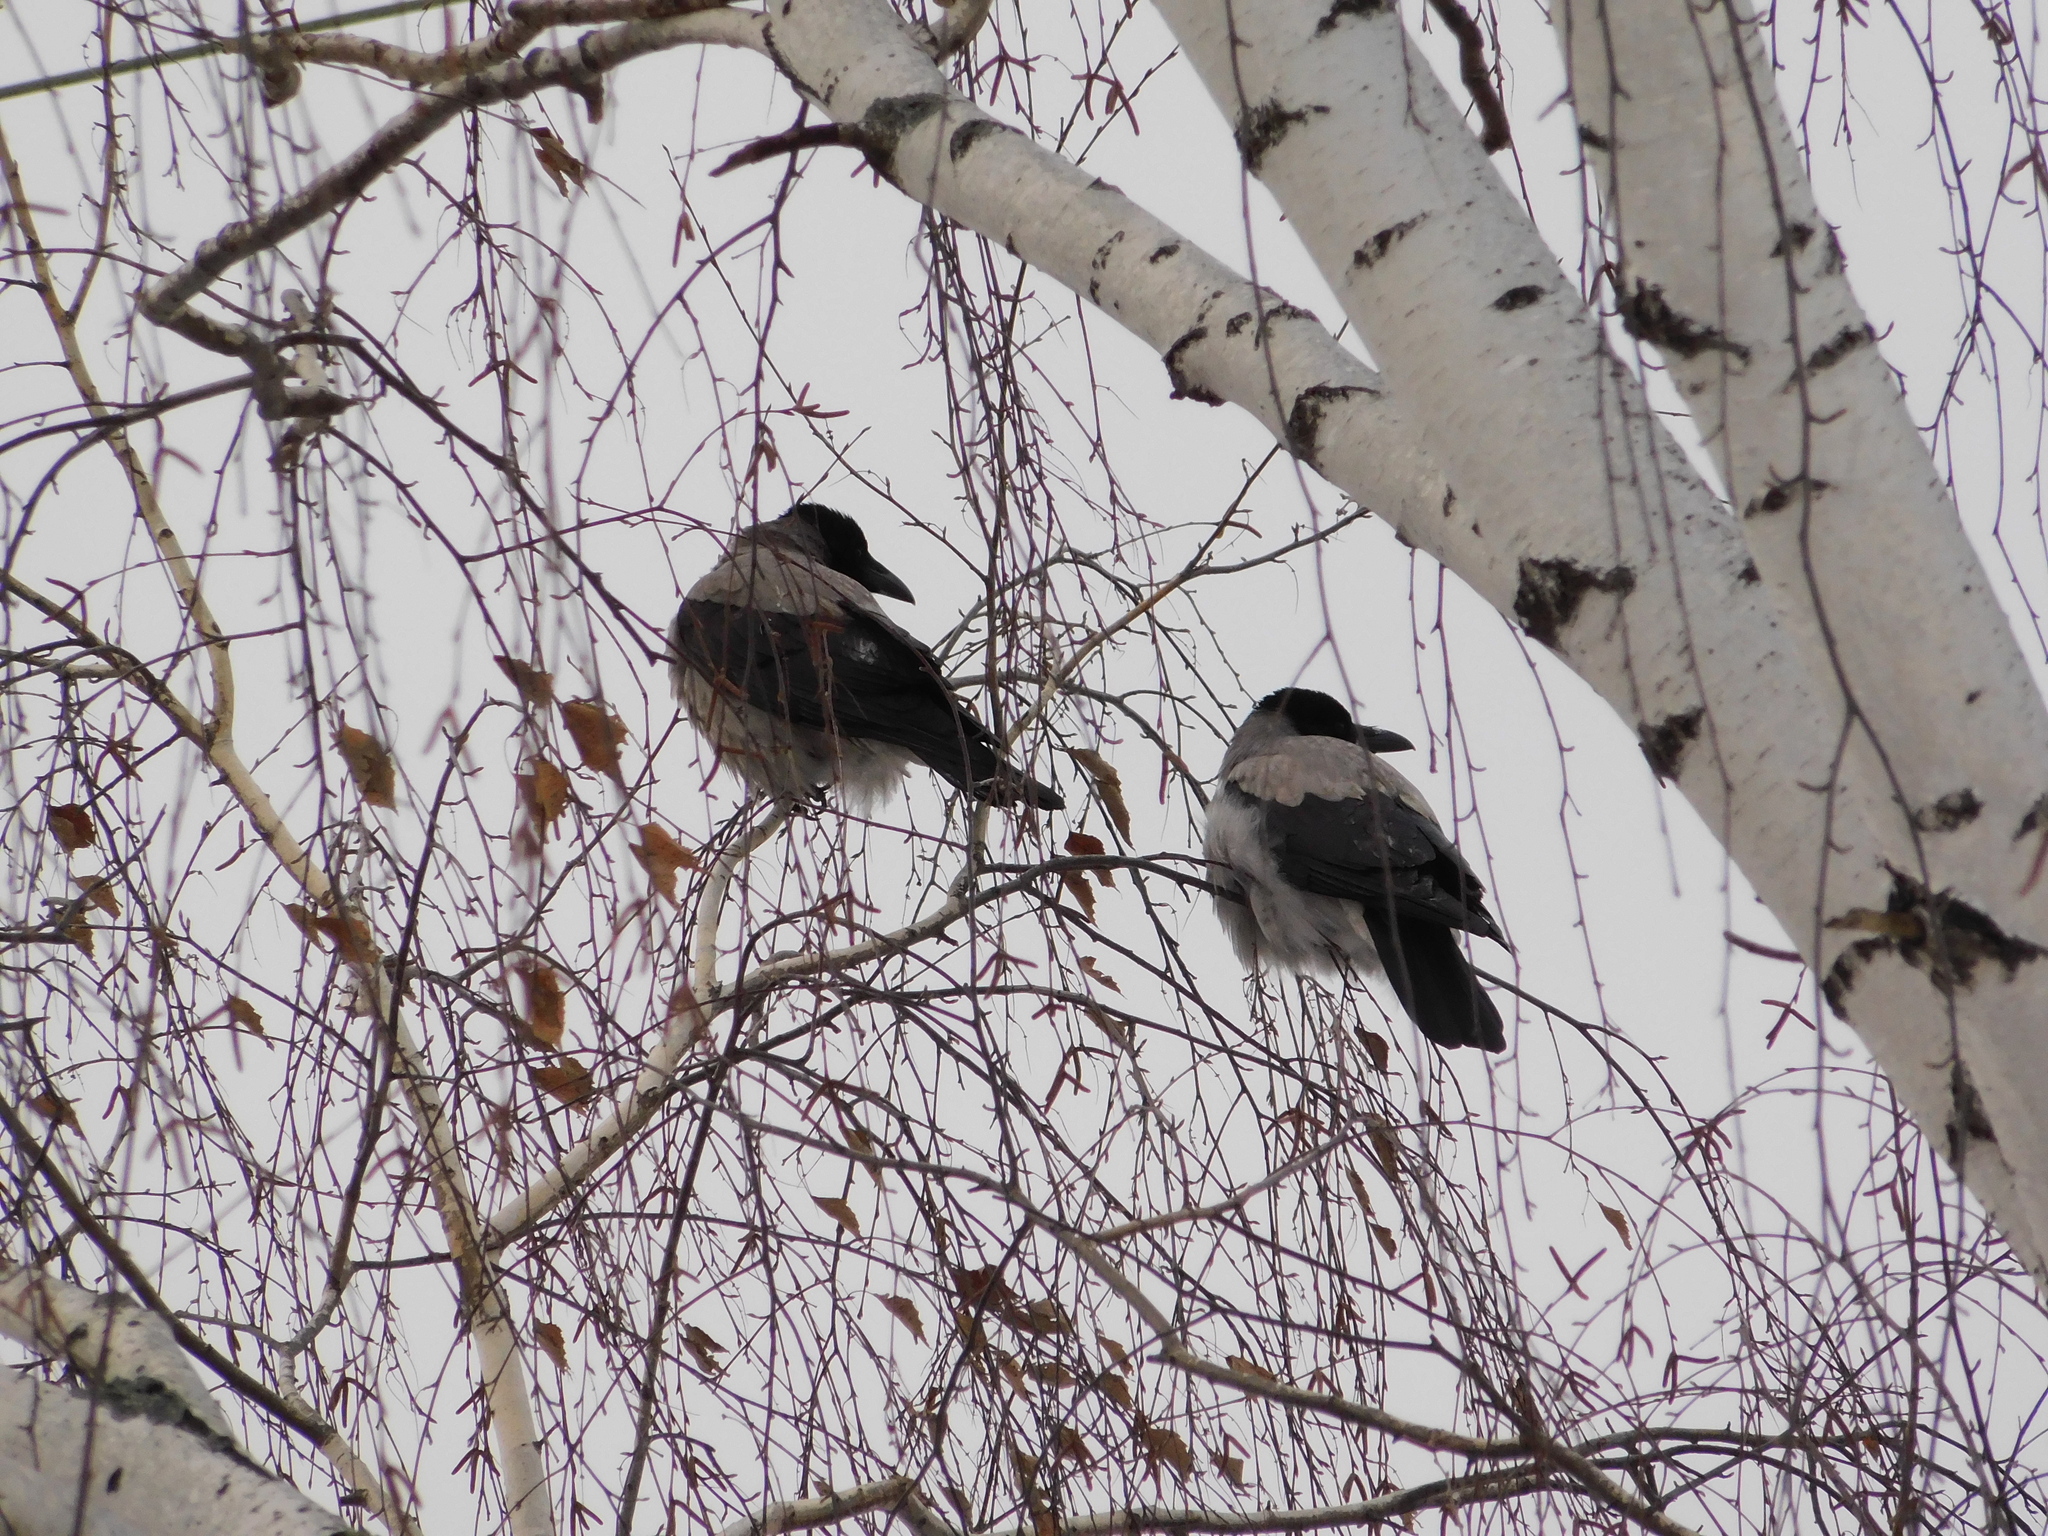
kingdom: Animalia
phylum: Chordata
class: Aves
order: Passeriformes
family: Corvidae
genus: Corvus
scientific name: Corvus cornix
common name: Hooded crow
